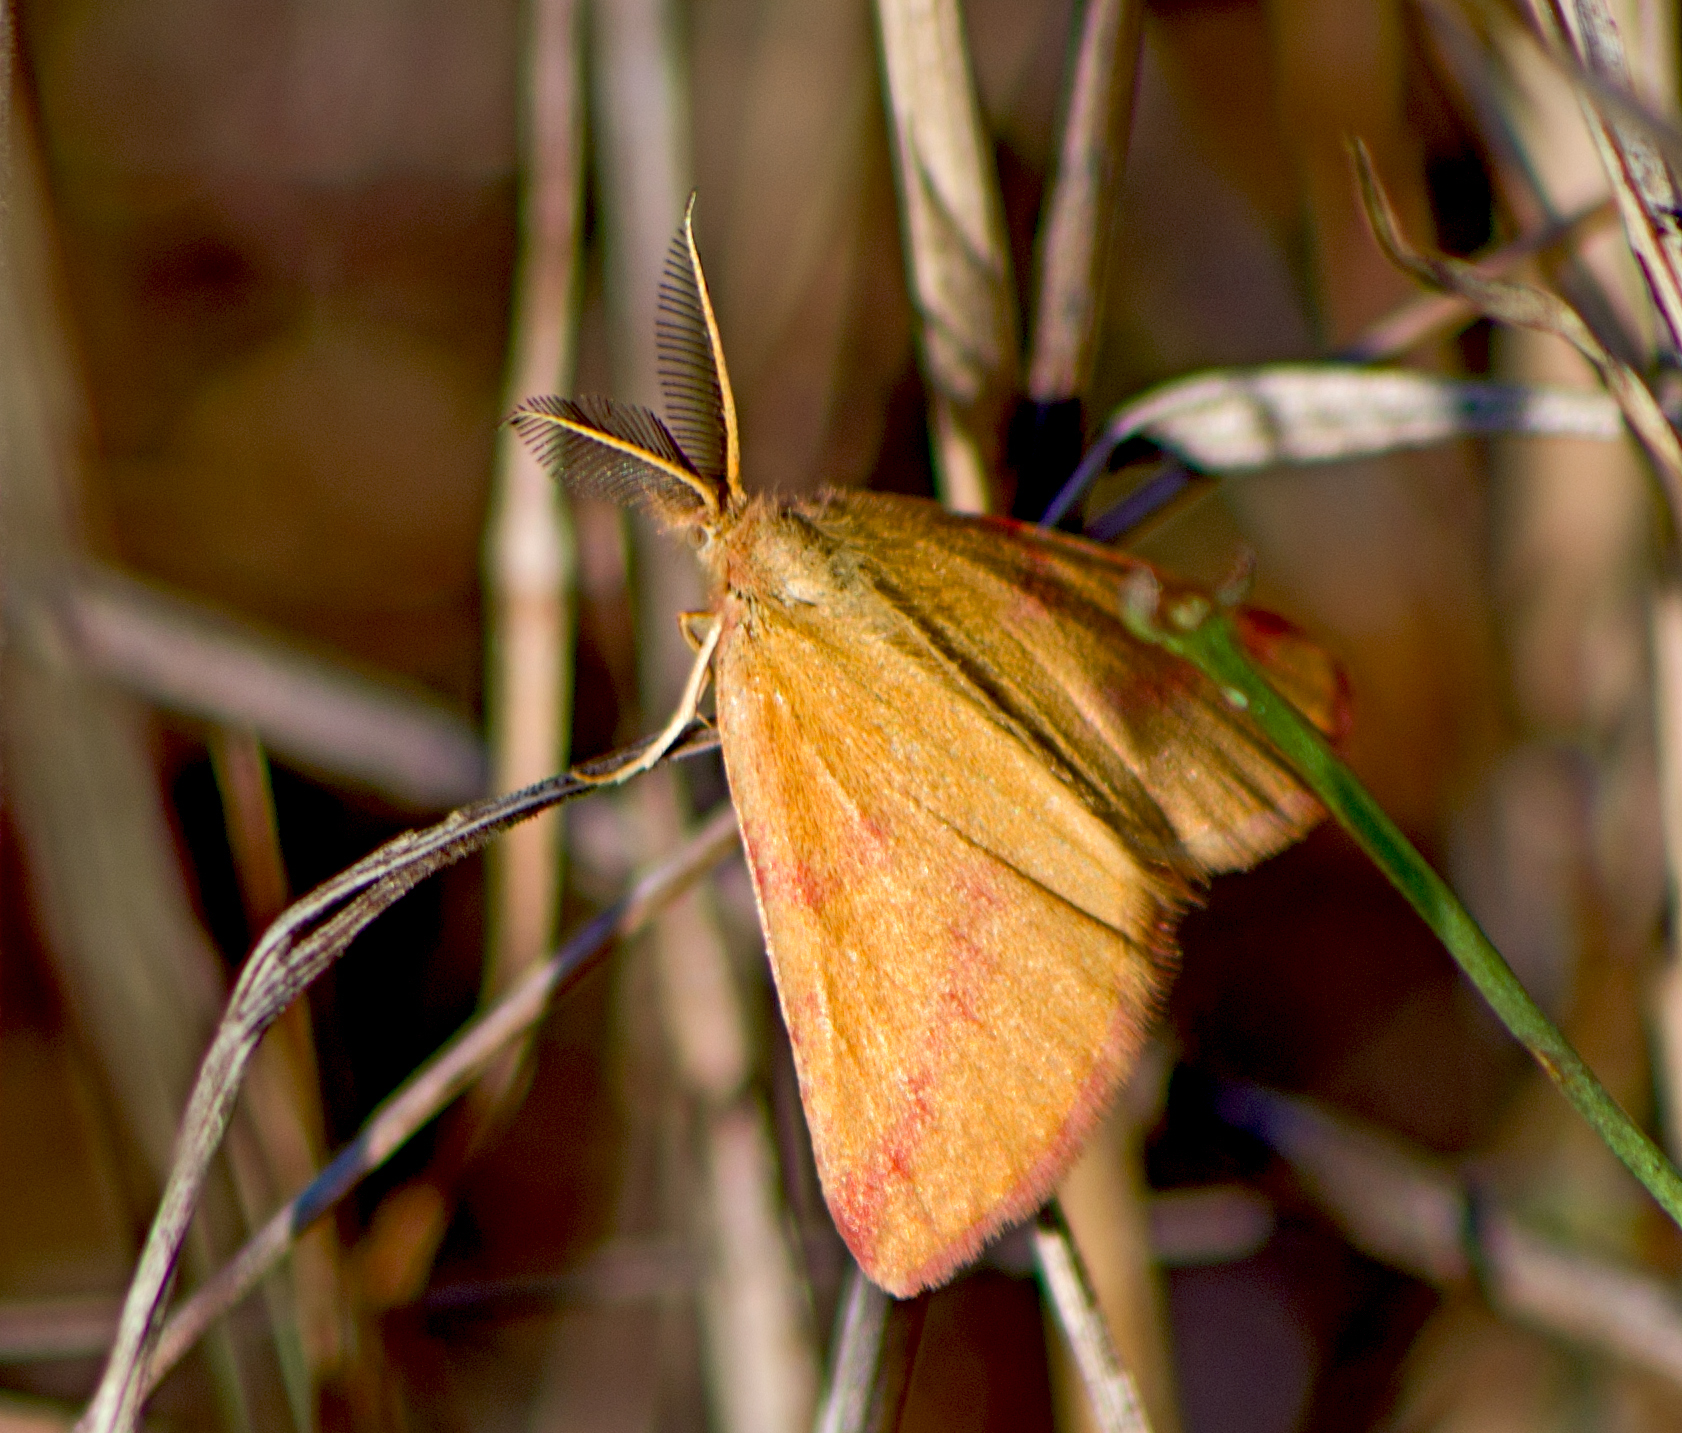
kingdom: Animalia
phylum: Arthropoda
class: Insecta
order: Lepidoptera
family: Geometridae
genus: Lythria
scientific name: Lythria purpuraria
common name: Purple-barred yellow
